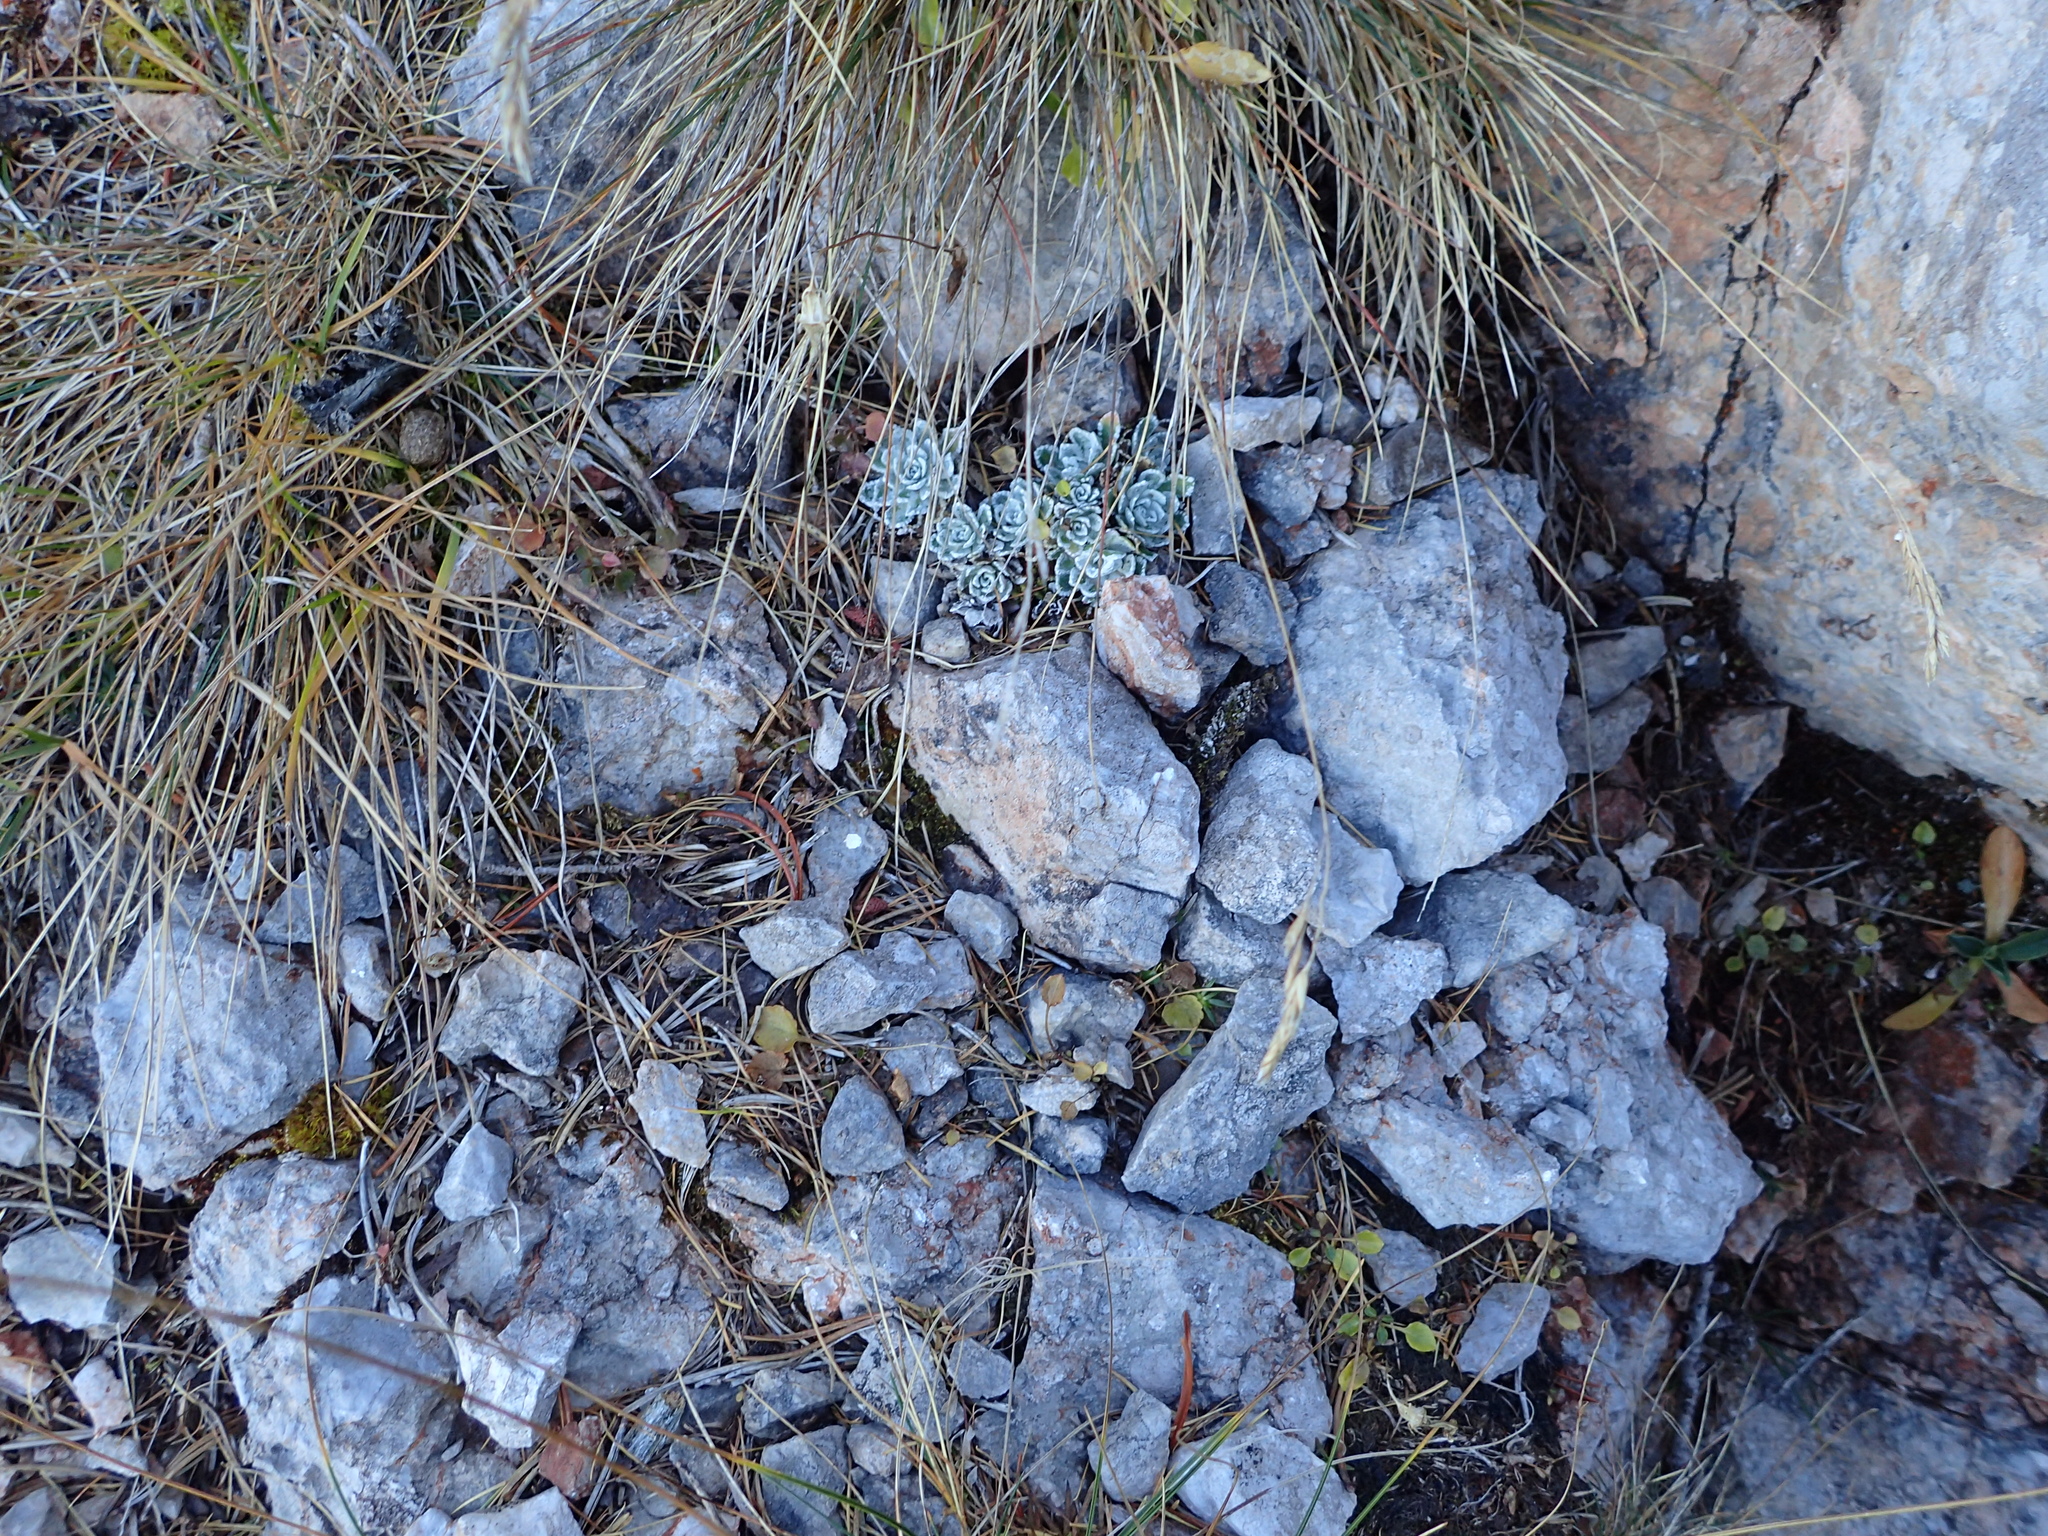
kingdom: Plantae
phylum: Tracheophyta
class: Magnoliopsida
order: Saxifragales
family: Saxifragaceae
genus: Saxifraga
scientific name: Saxifraga paniculata
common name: Livelong saxifrage
